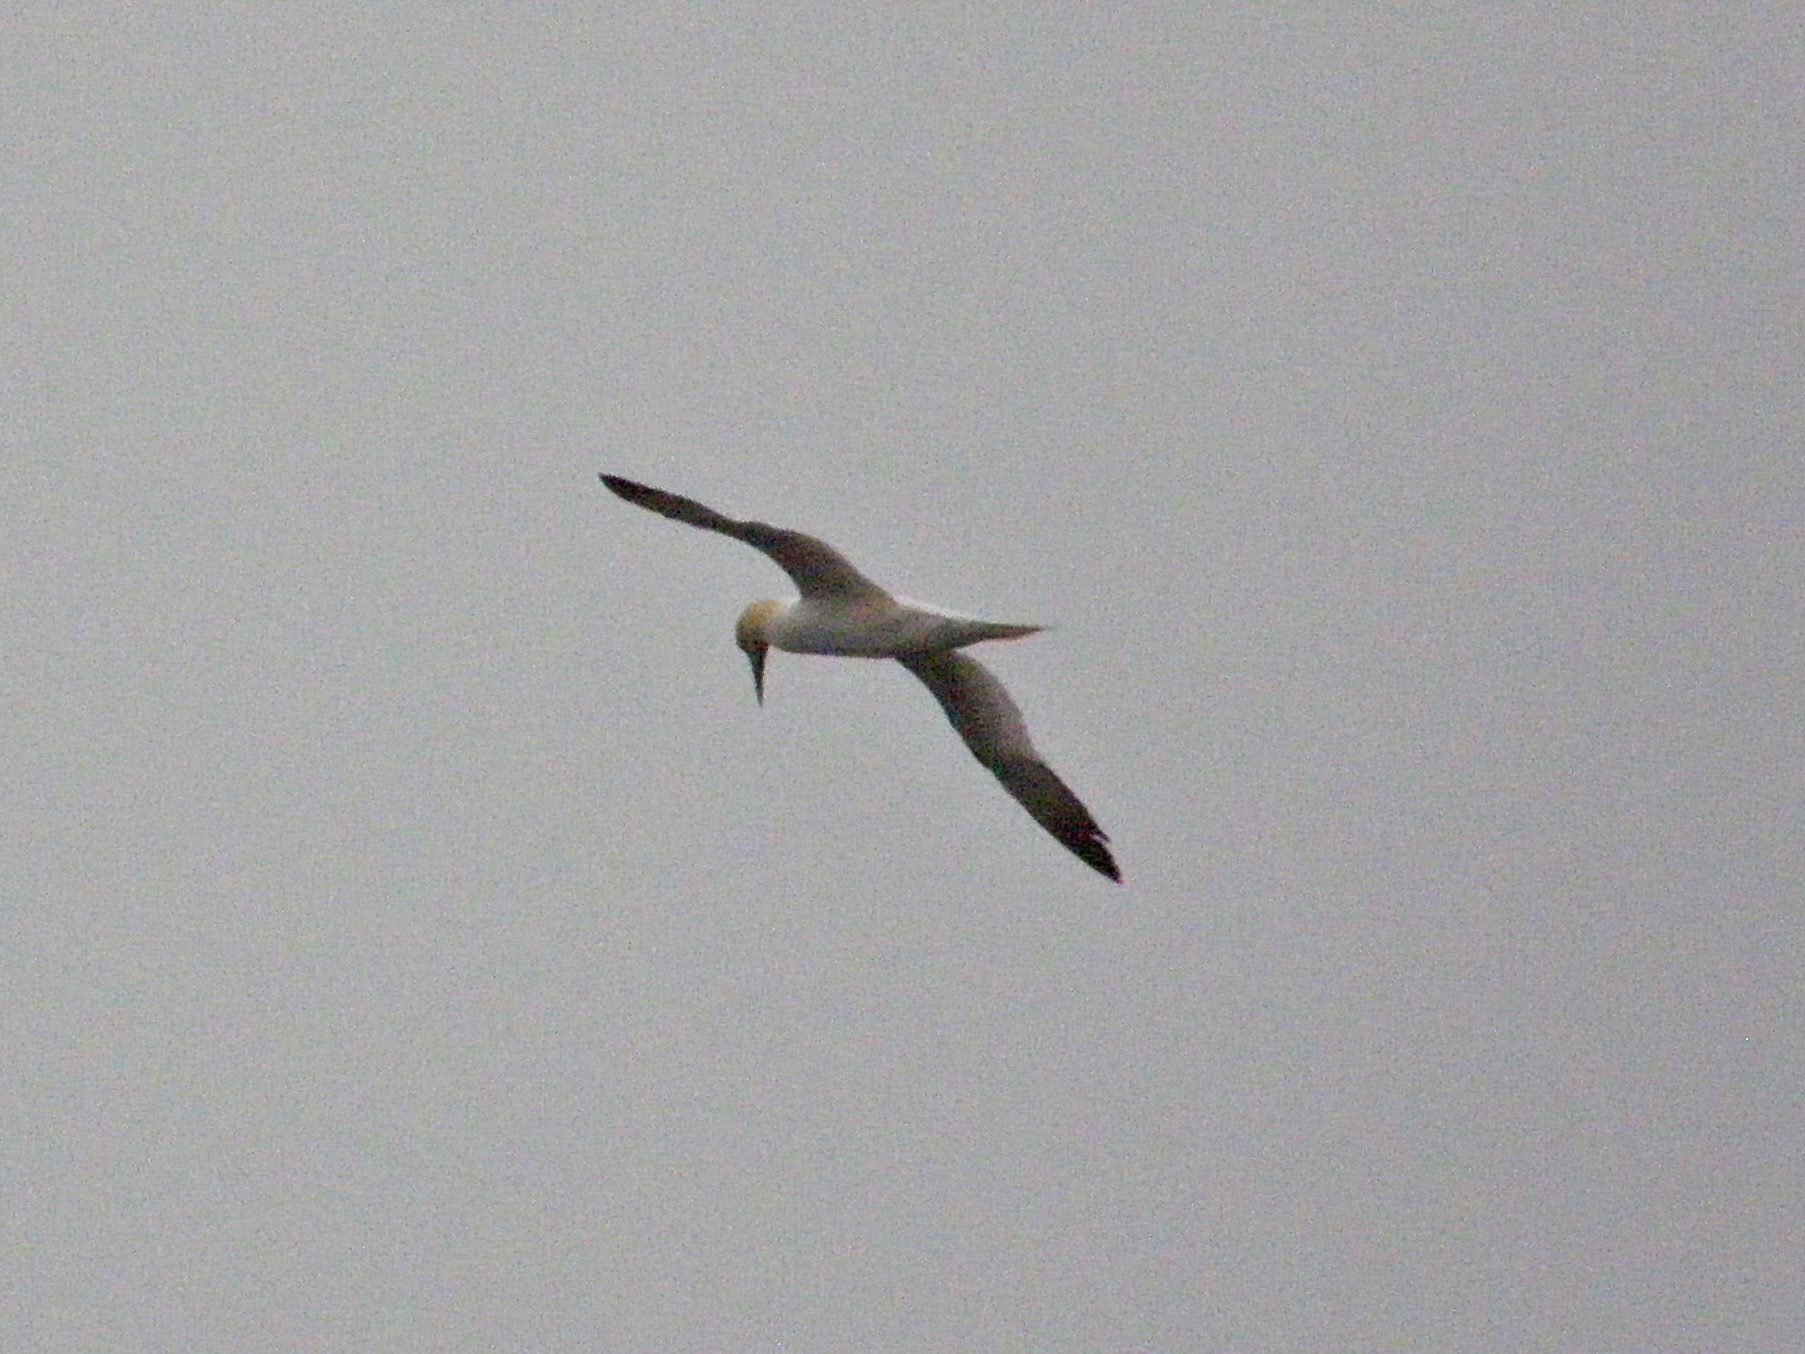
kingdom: Animalia
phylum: Chordata
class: Aves
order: Suliformes
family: Sulidae
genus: Morus
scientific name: Morus bassanus
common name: Northern gannet
